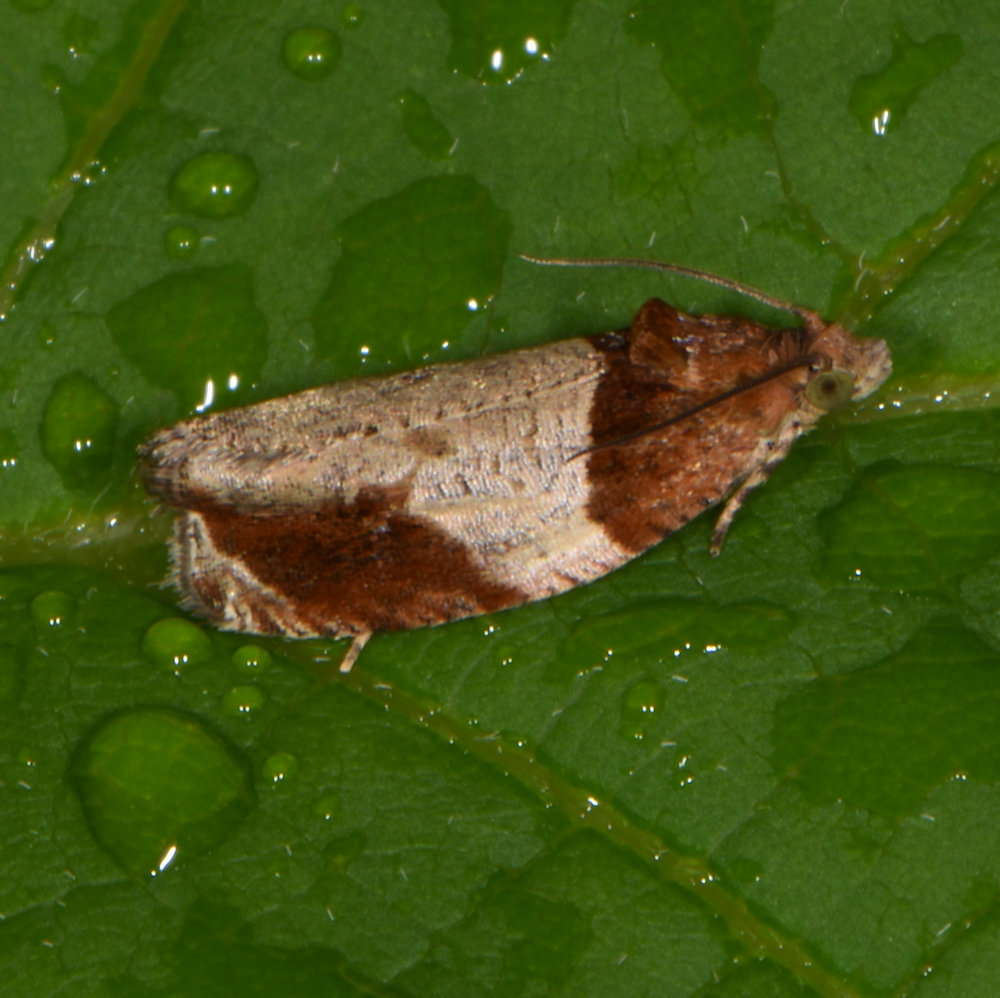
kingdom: Animalia
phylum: Arthropoda
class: Insecta
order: Lepidoptera
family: Tortricidae
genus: Olethreutes
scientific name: Olethreutes ferriferana
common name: Hydrangea leaftier moth
